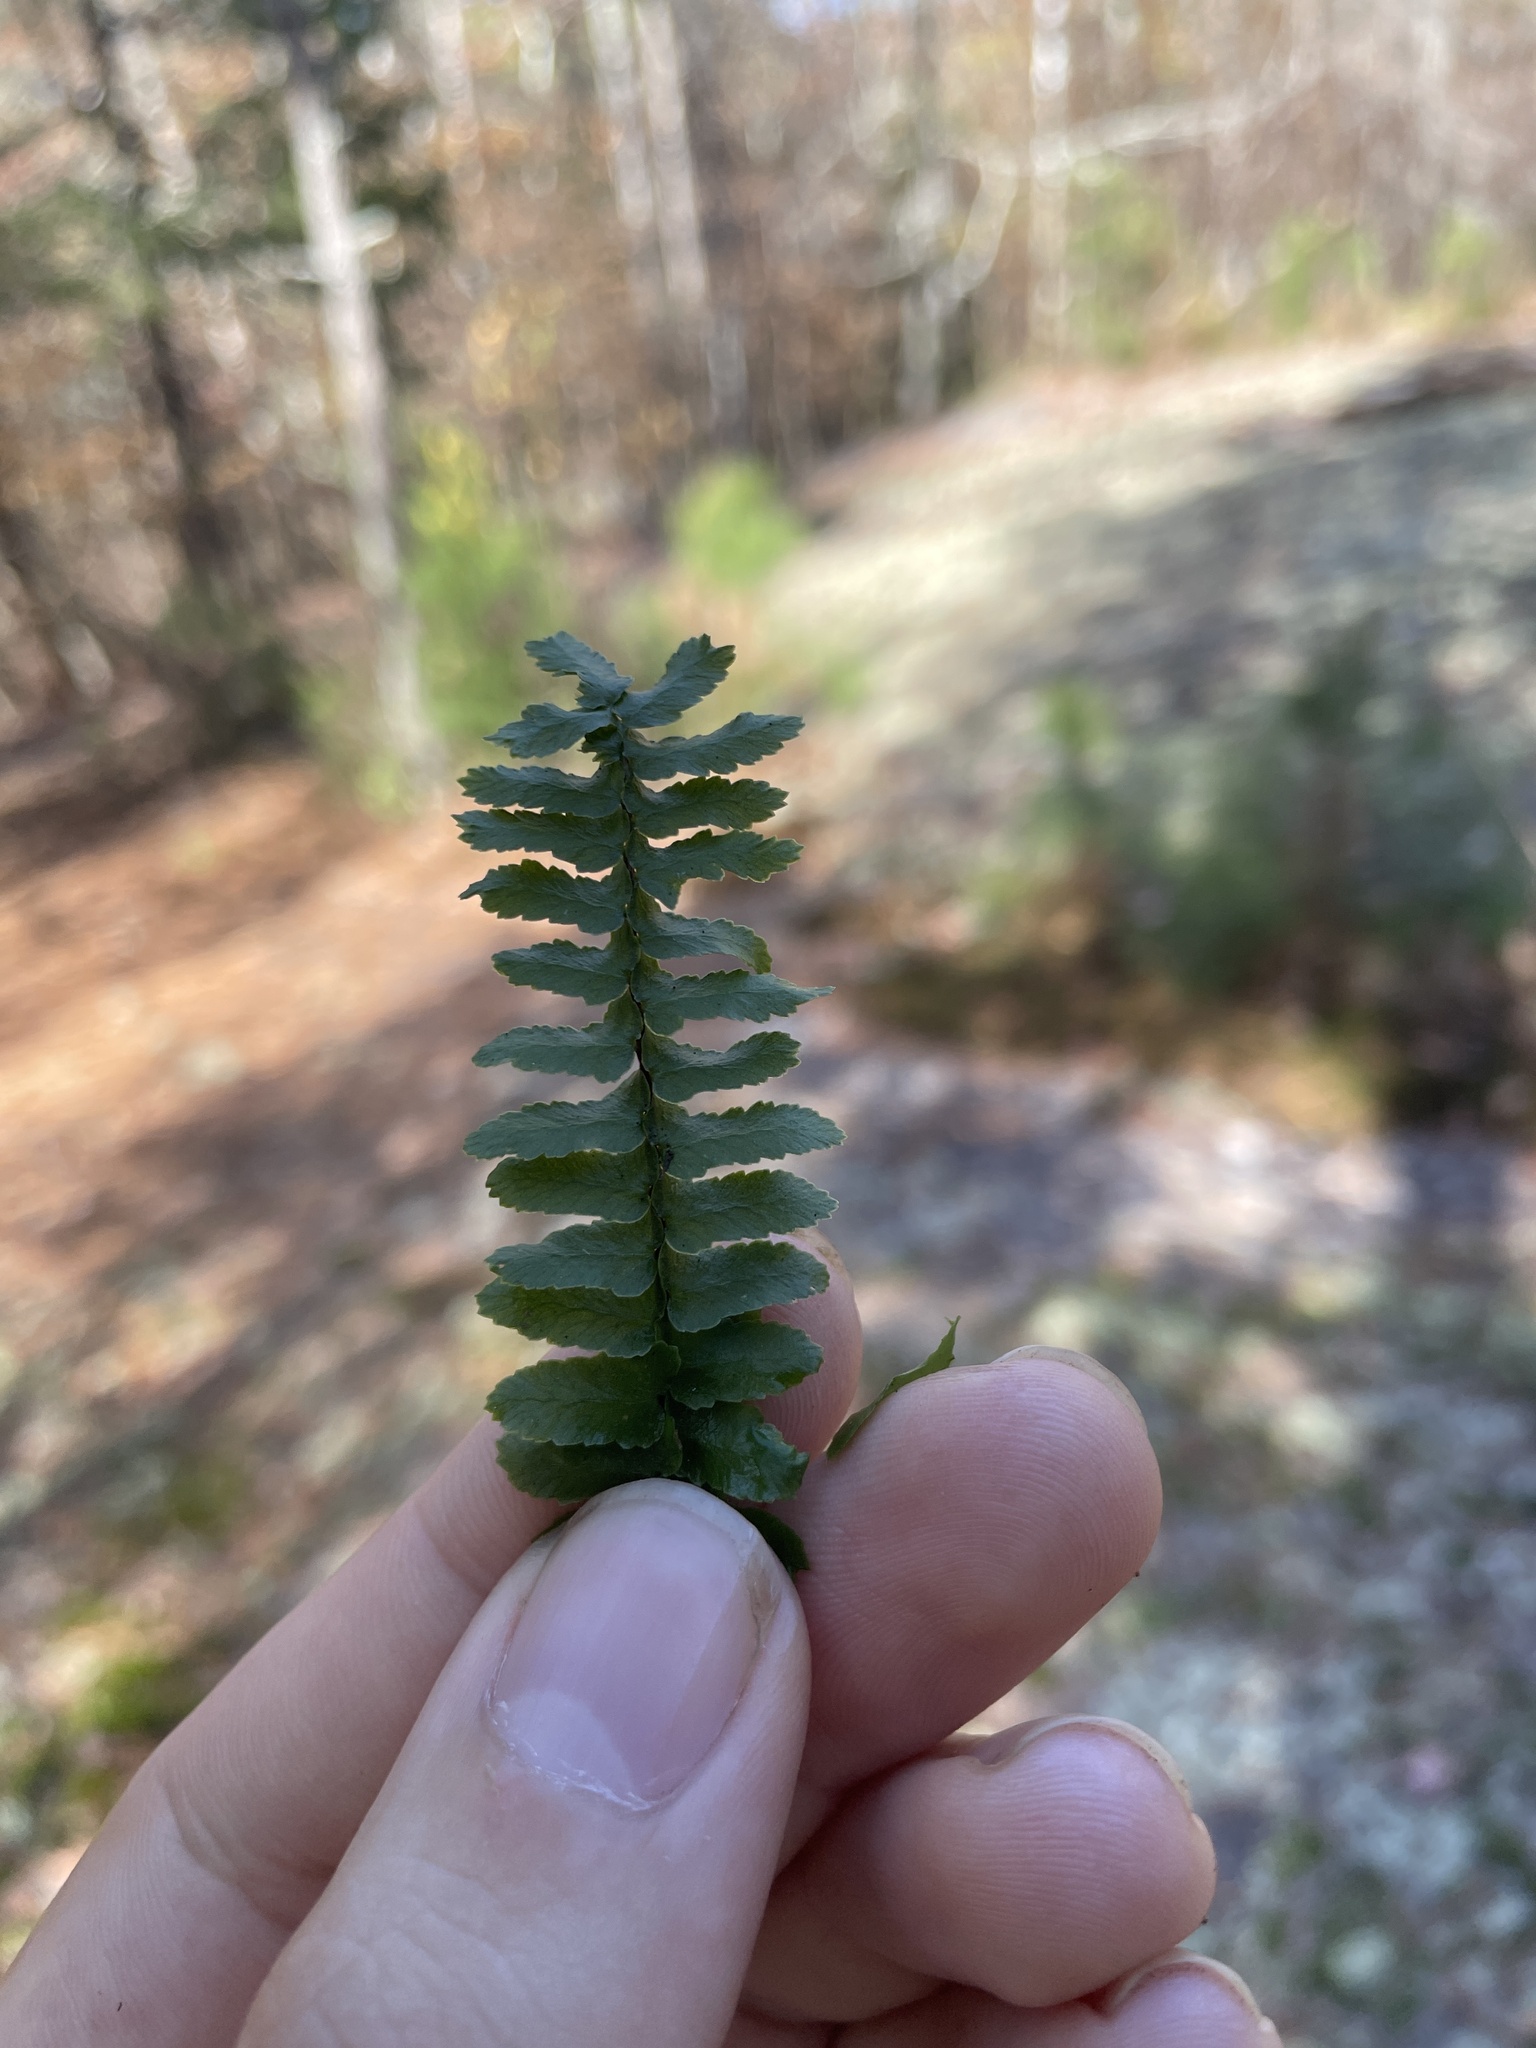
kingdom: Plantae
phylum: Tracheophyta
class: Polypodiopsida
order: Polypodiales
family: Aspleniaceae
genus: Asplenium
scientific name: Asplenium platyneuron
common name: Ebony spleenwort
